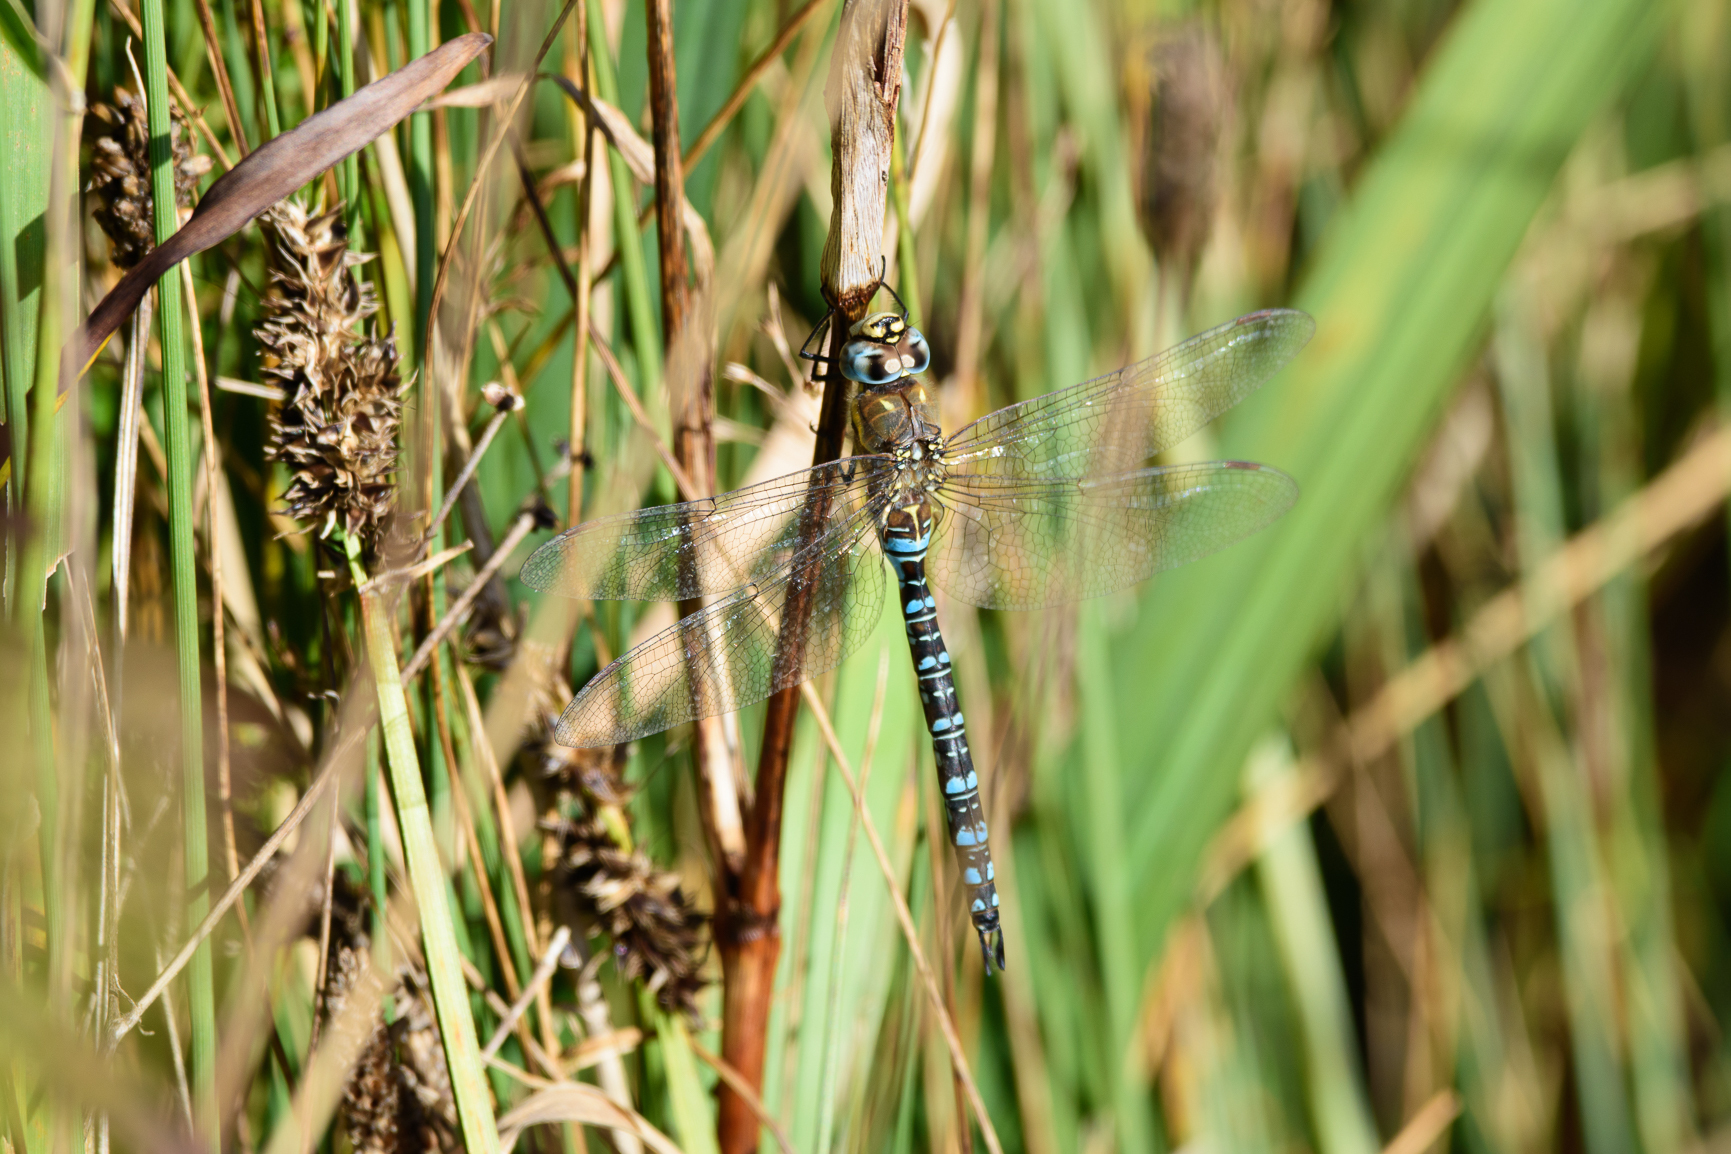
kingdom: Animalia
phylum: Arthropoda
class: Insecta
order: Odonata
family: Aeshnidae
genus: Aeshna
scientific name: Aeshna mixta
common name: Migrant hawker
